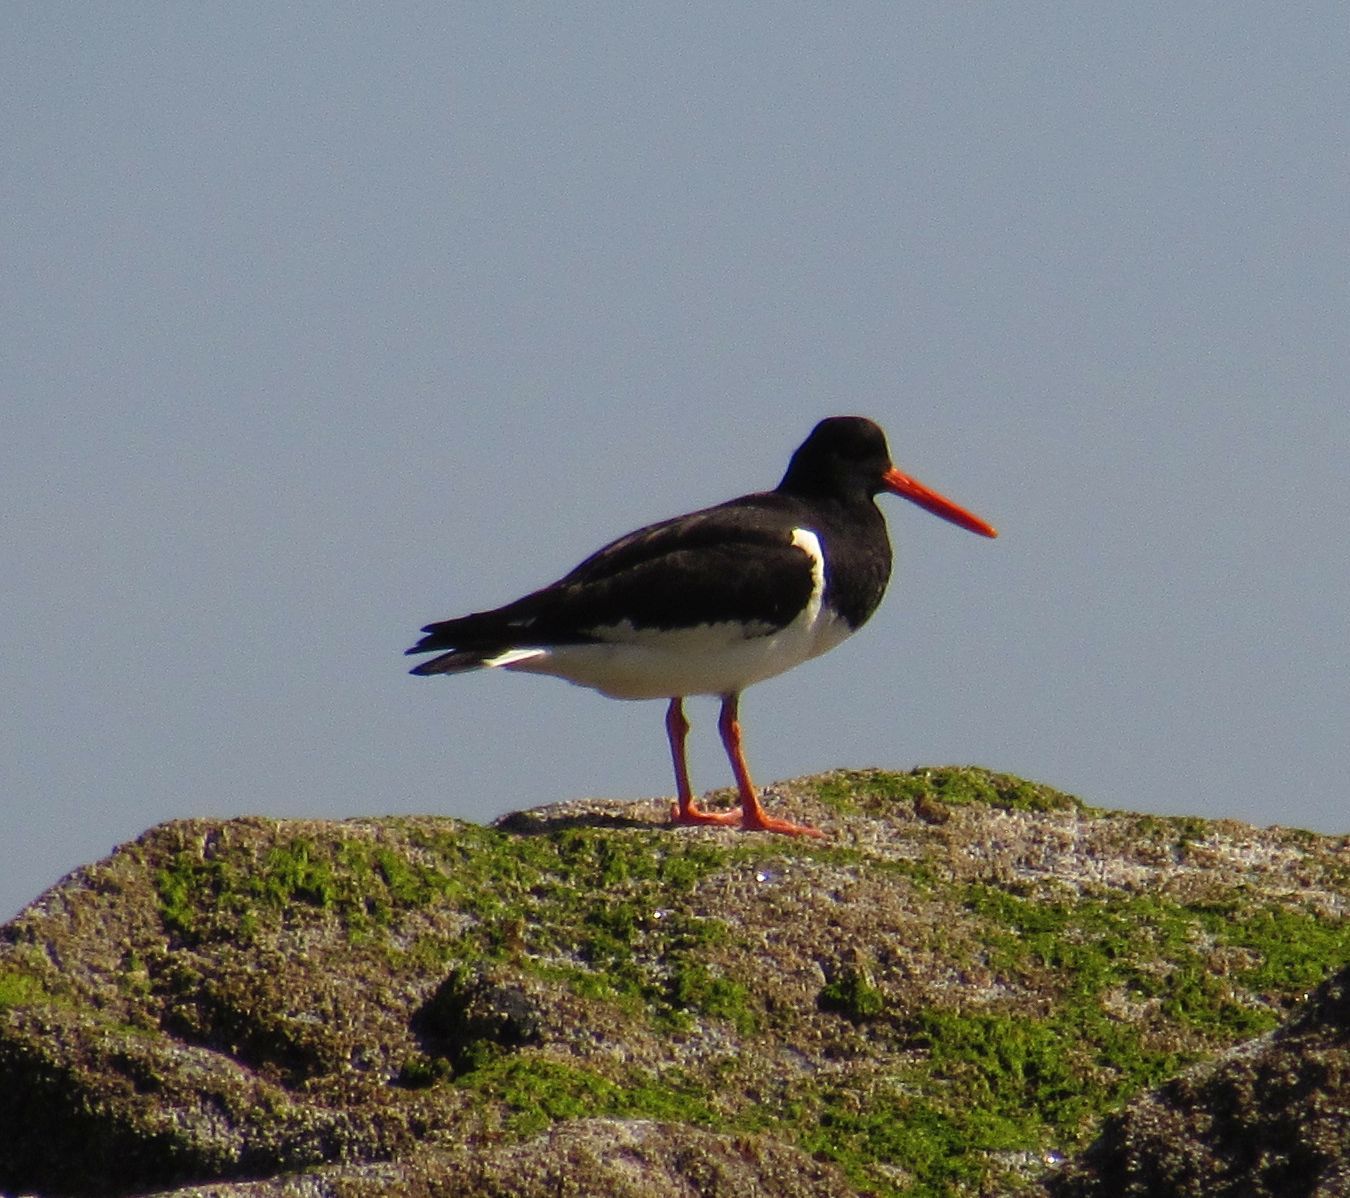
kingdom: Animalia
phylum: Chordata
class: Aves
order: Charadriiformes
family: Haematopodidae
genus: Haematopus
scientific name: Haematopus ostralegus
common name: Eurasian oystercatcher
